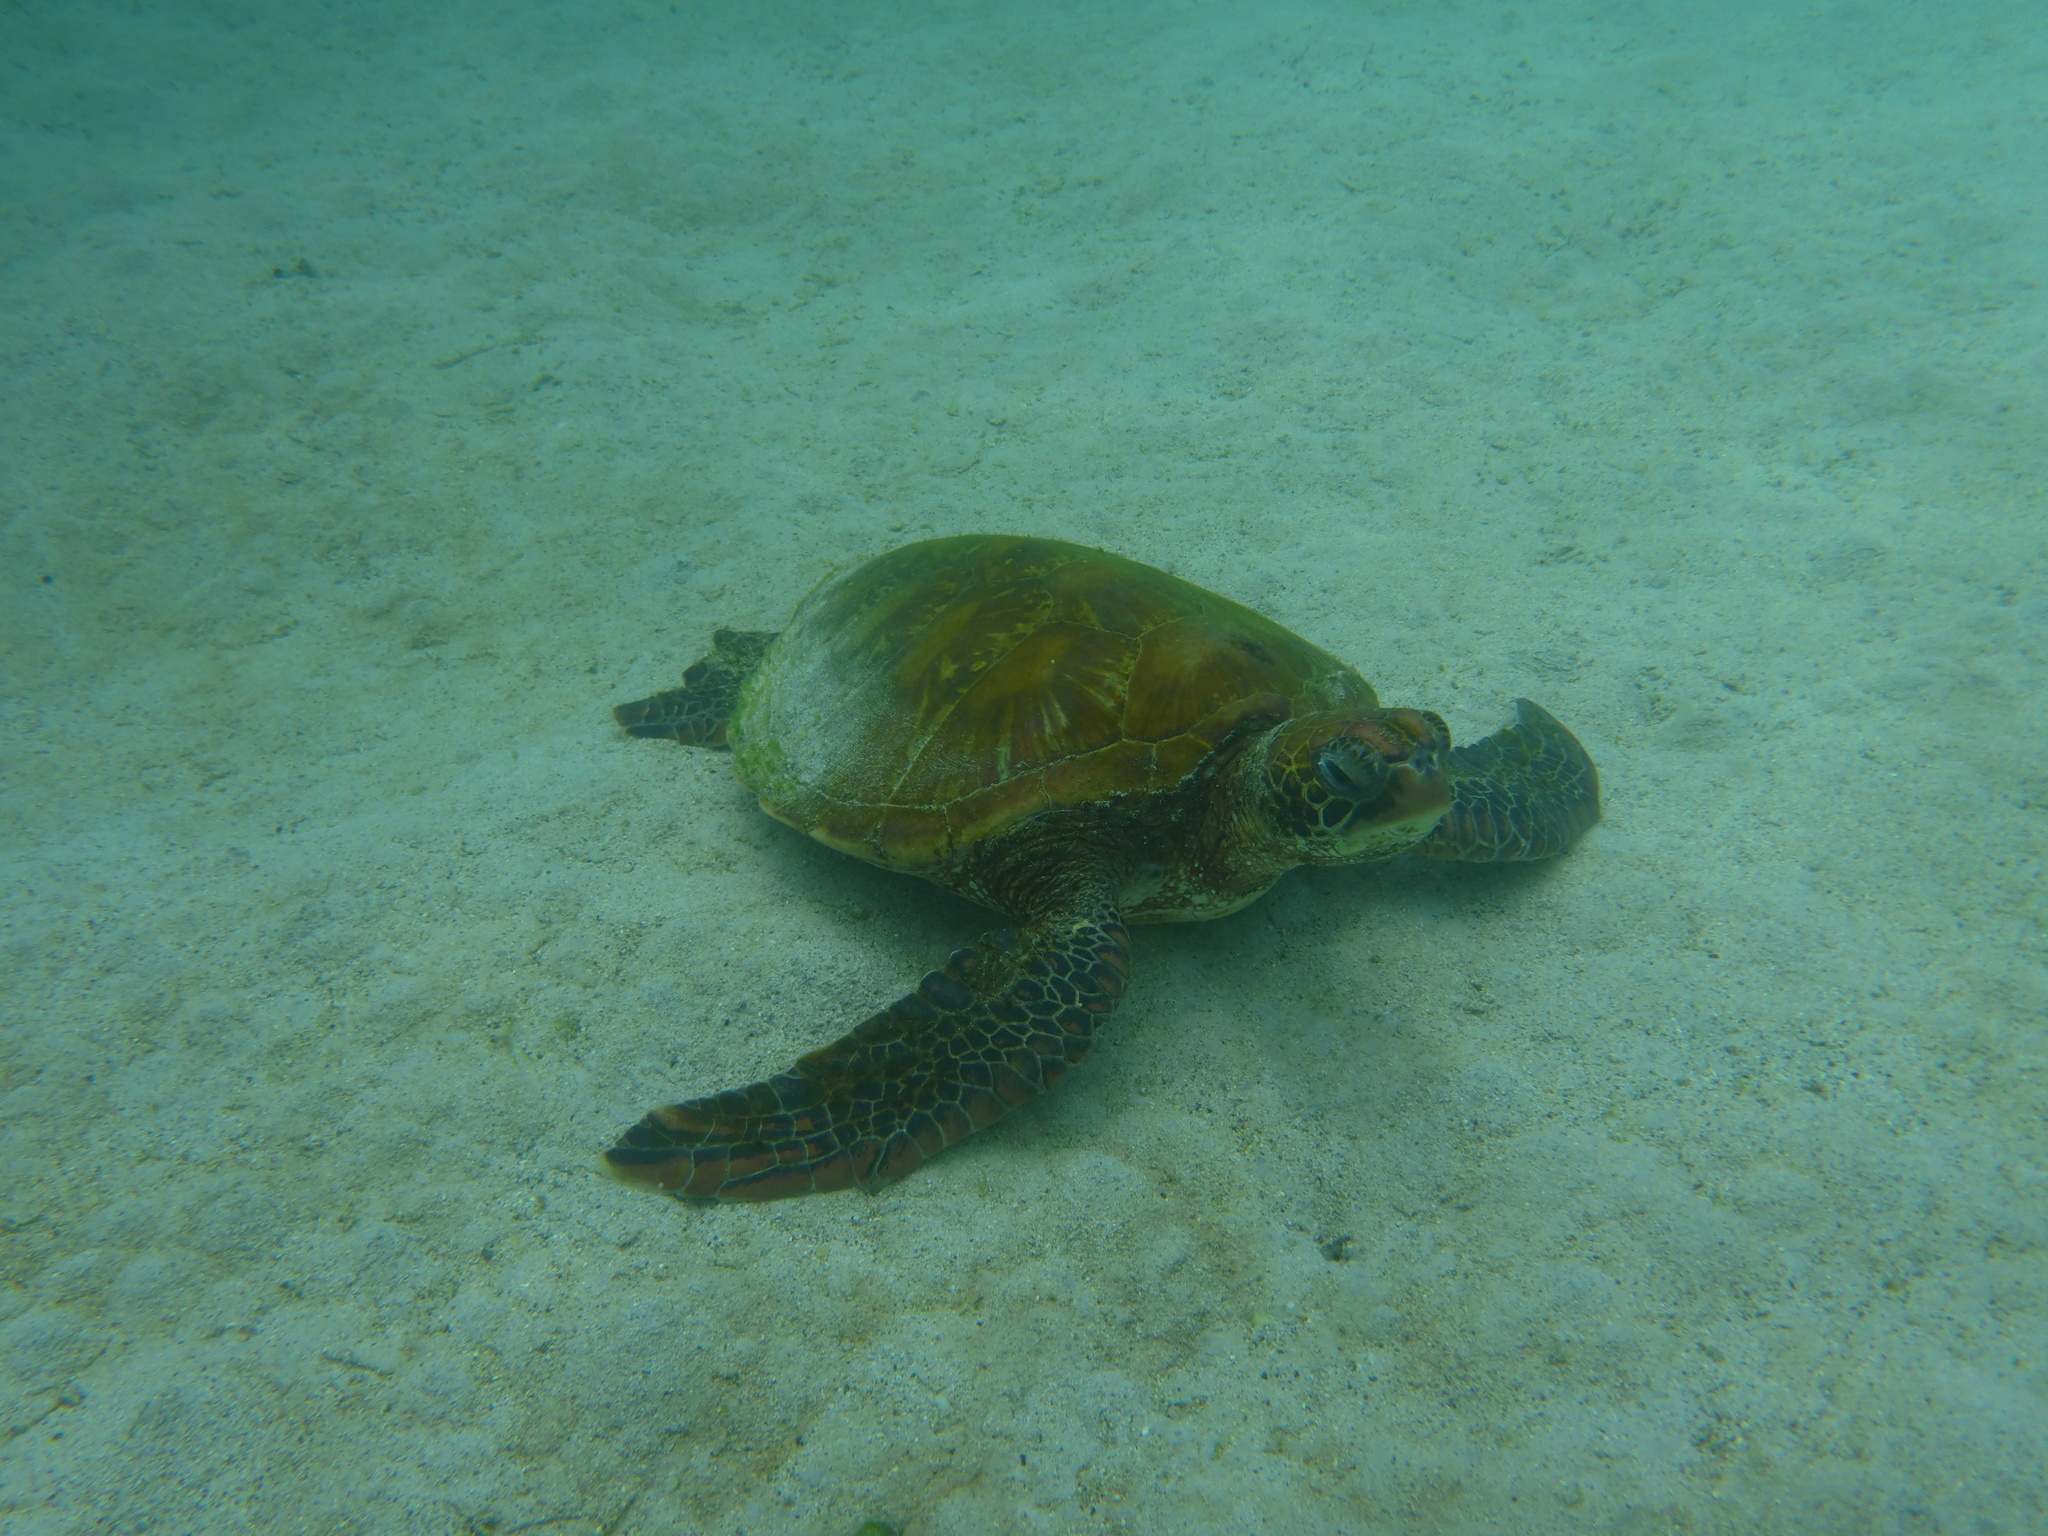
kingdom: Animalia
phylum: Chordata
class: Testudines
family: Cheloniidae
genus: Chelonia
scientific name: Chelonia mydas
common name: Green turtle
